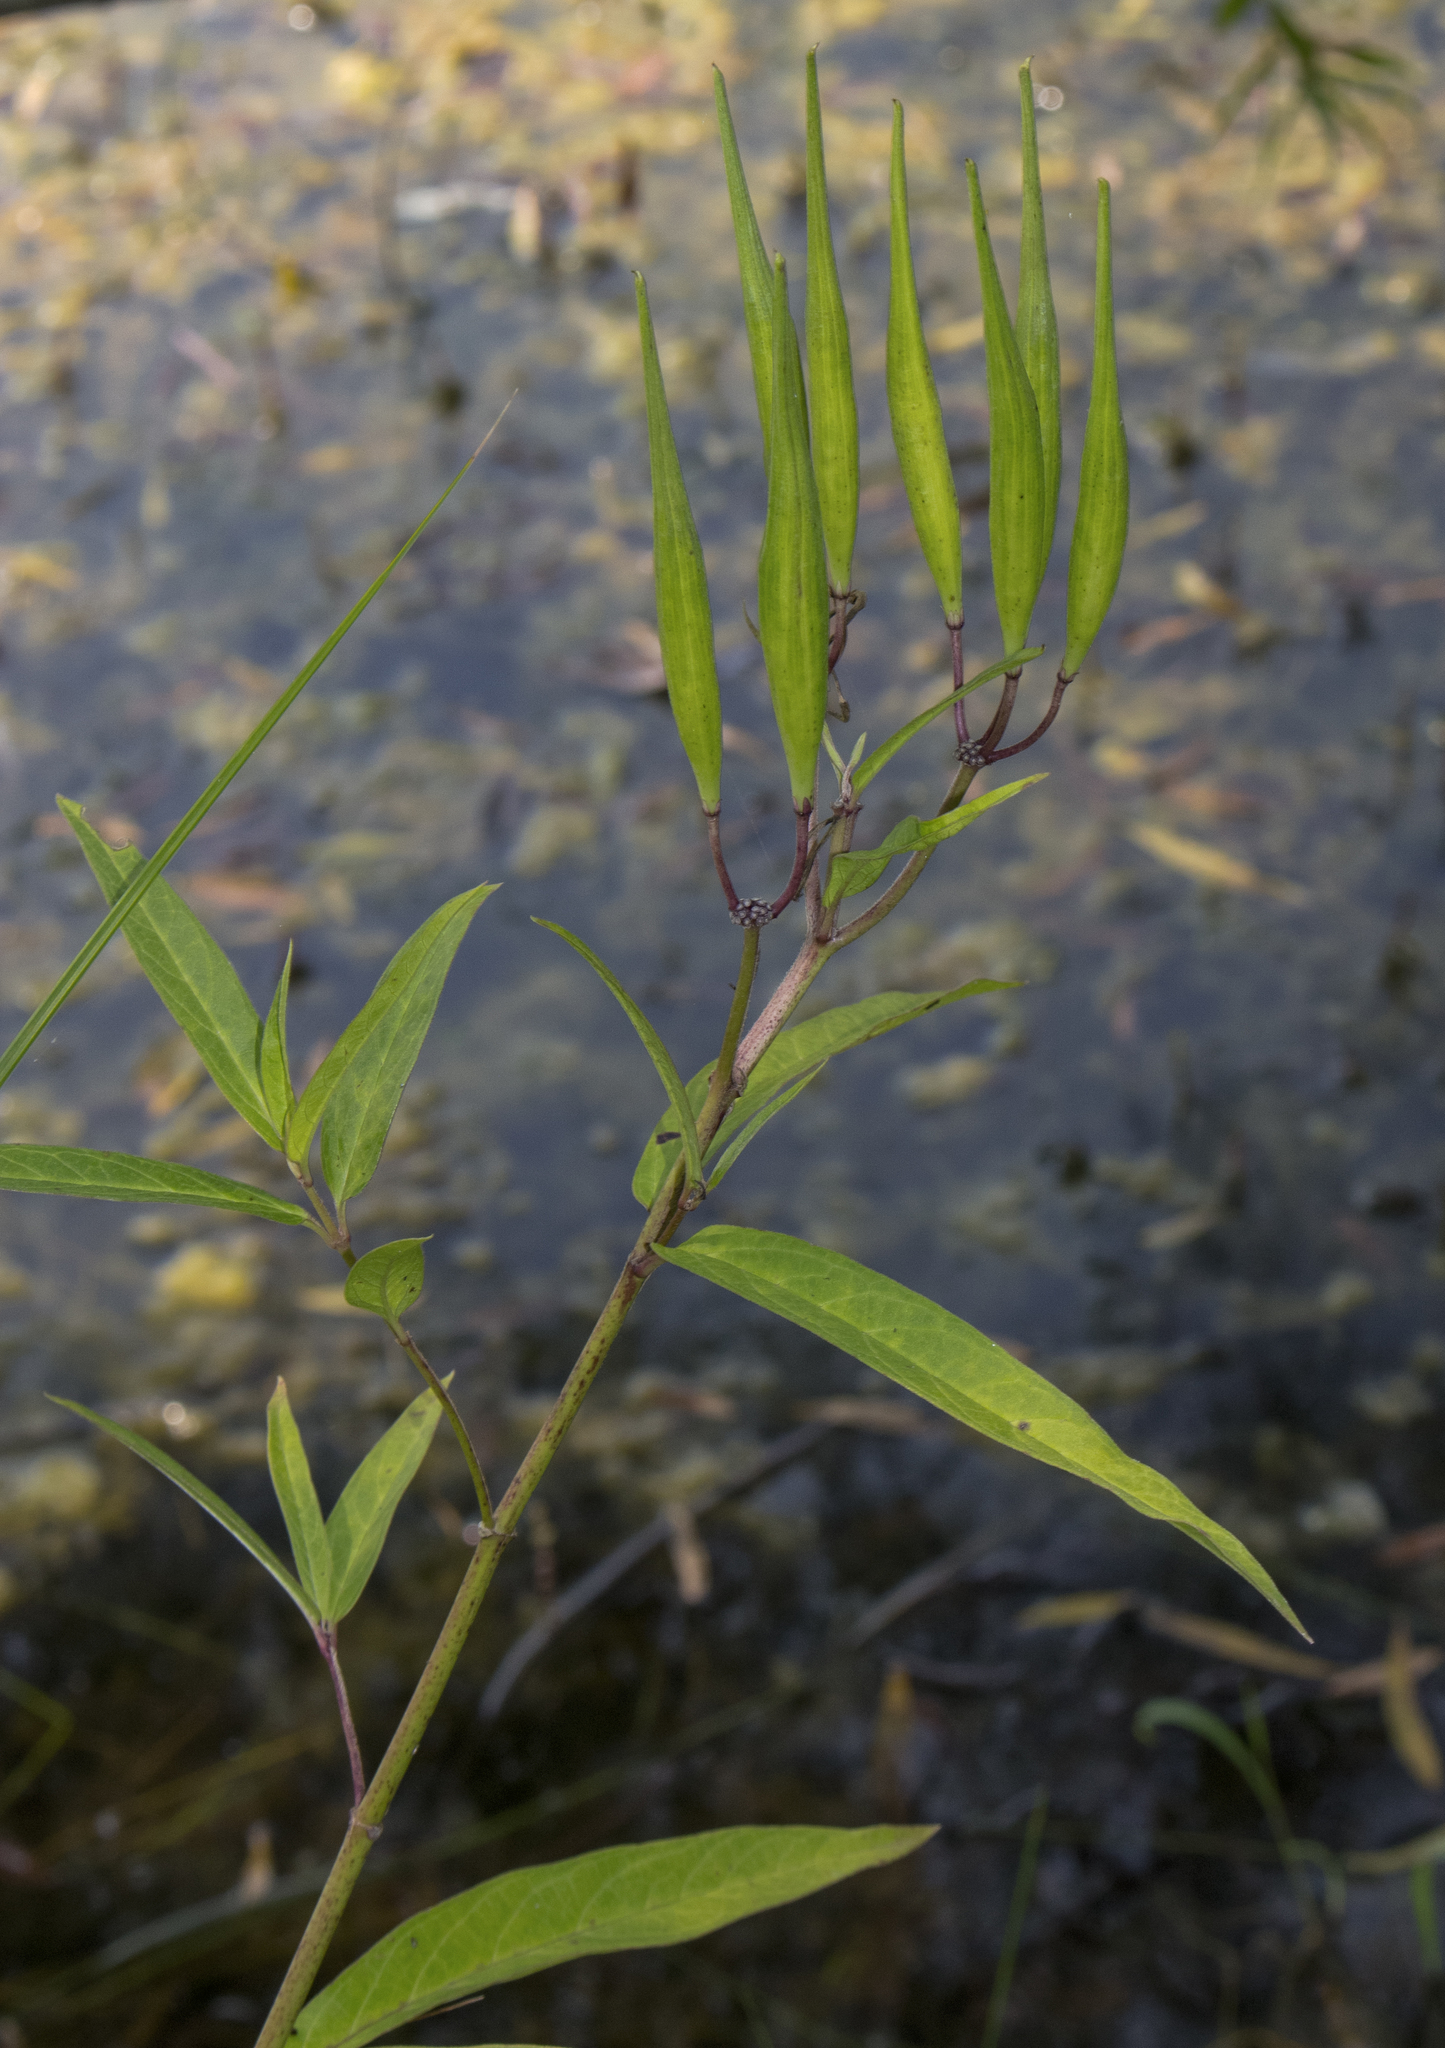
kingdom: Plantae
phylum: Tracheophyta
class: Magnoliopsida
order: Gentianales
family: Apocynaceae
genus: Asclepias
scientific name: Asclepias incarnata
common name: Swamp milkweed
